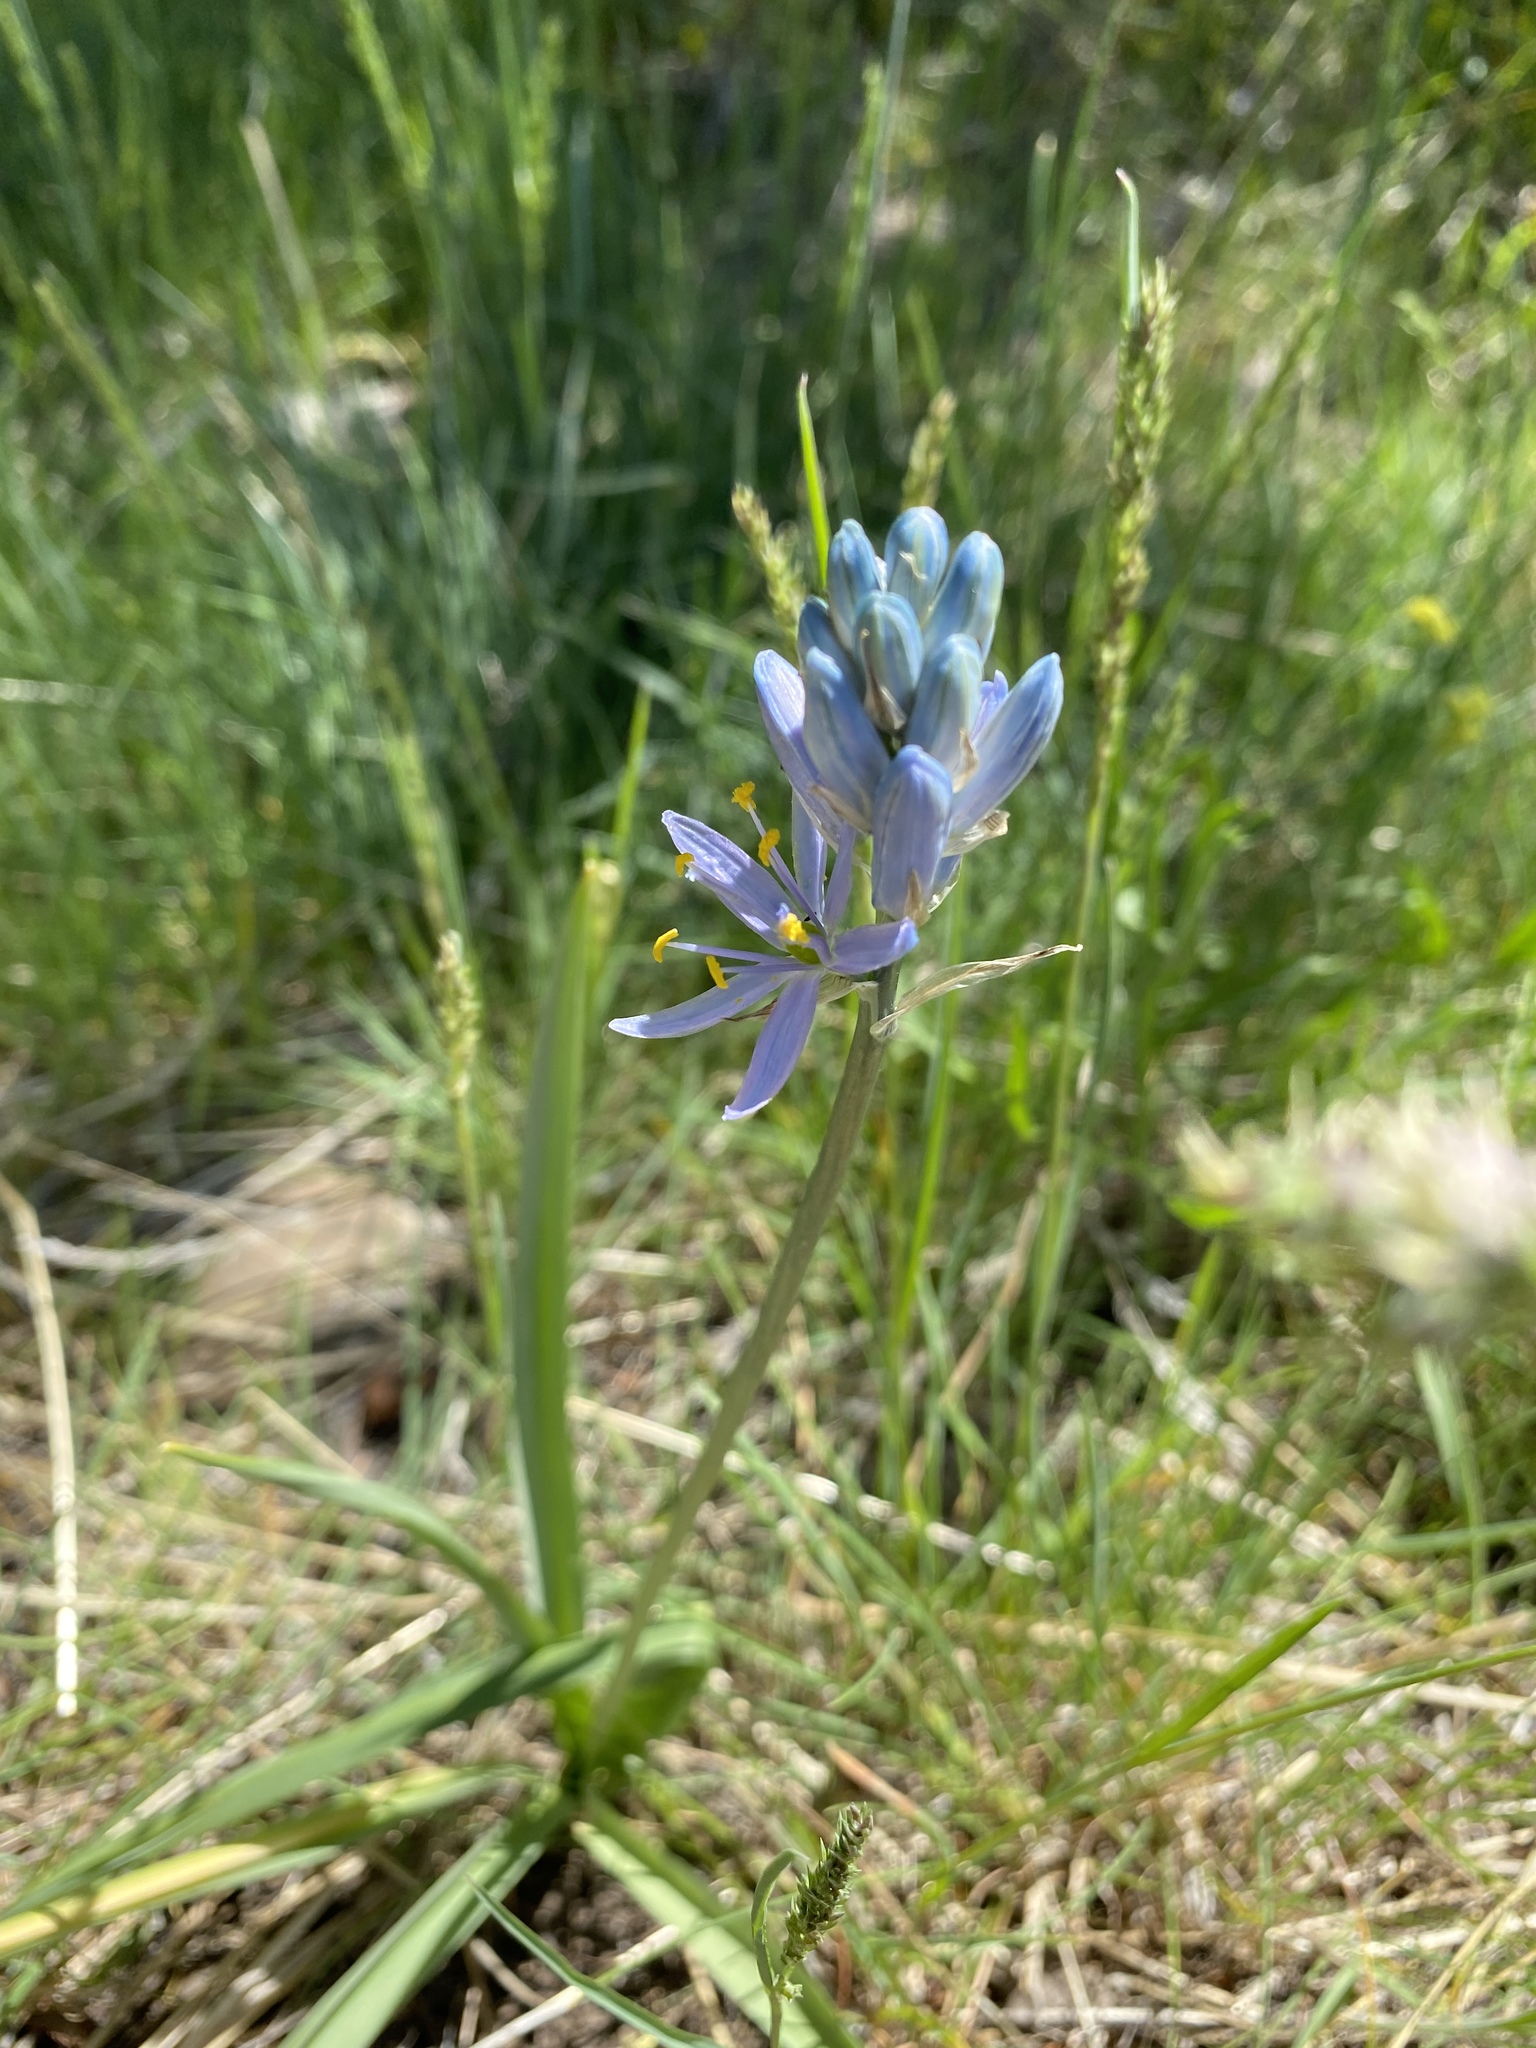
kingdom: Plantae
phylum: Tracheophyta
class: Liliopsida
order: Asparagales
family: Asparagaceae
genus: Camassia
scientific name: Camassia quamash
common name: Common camas
